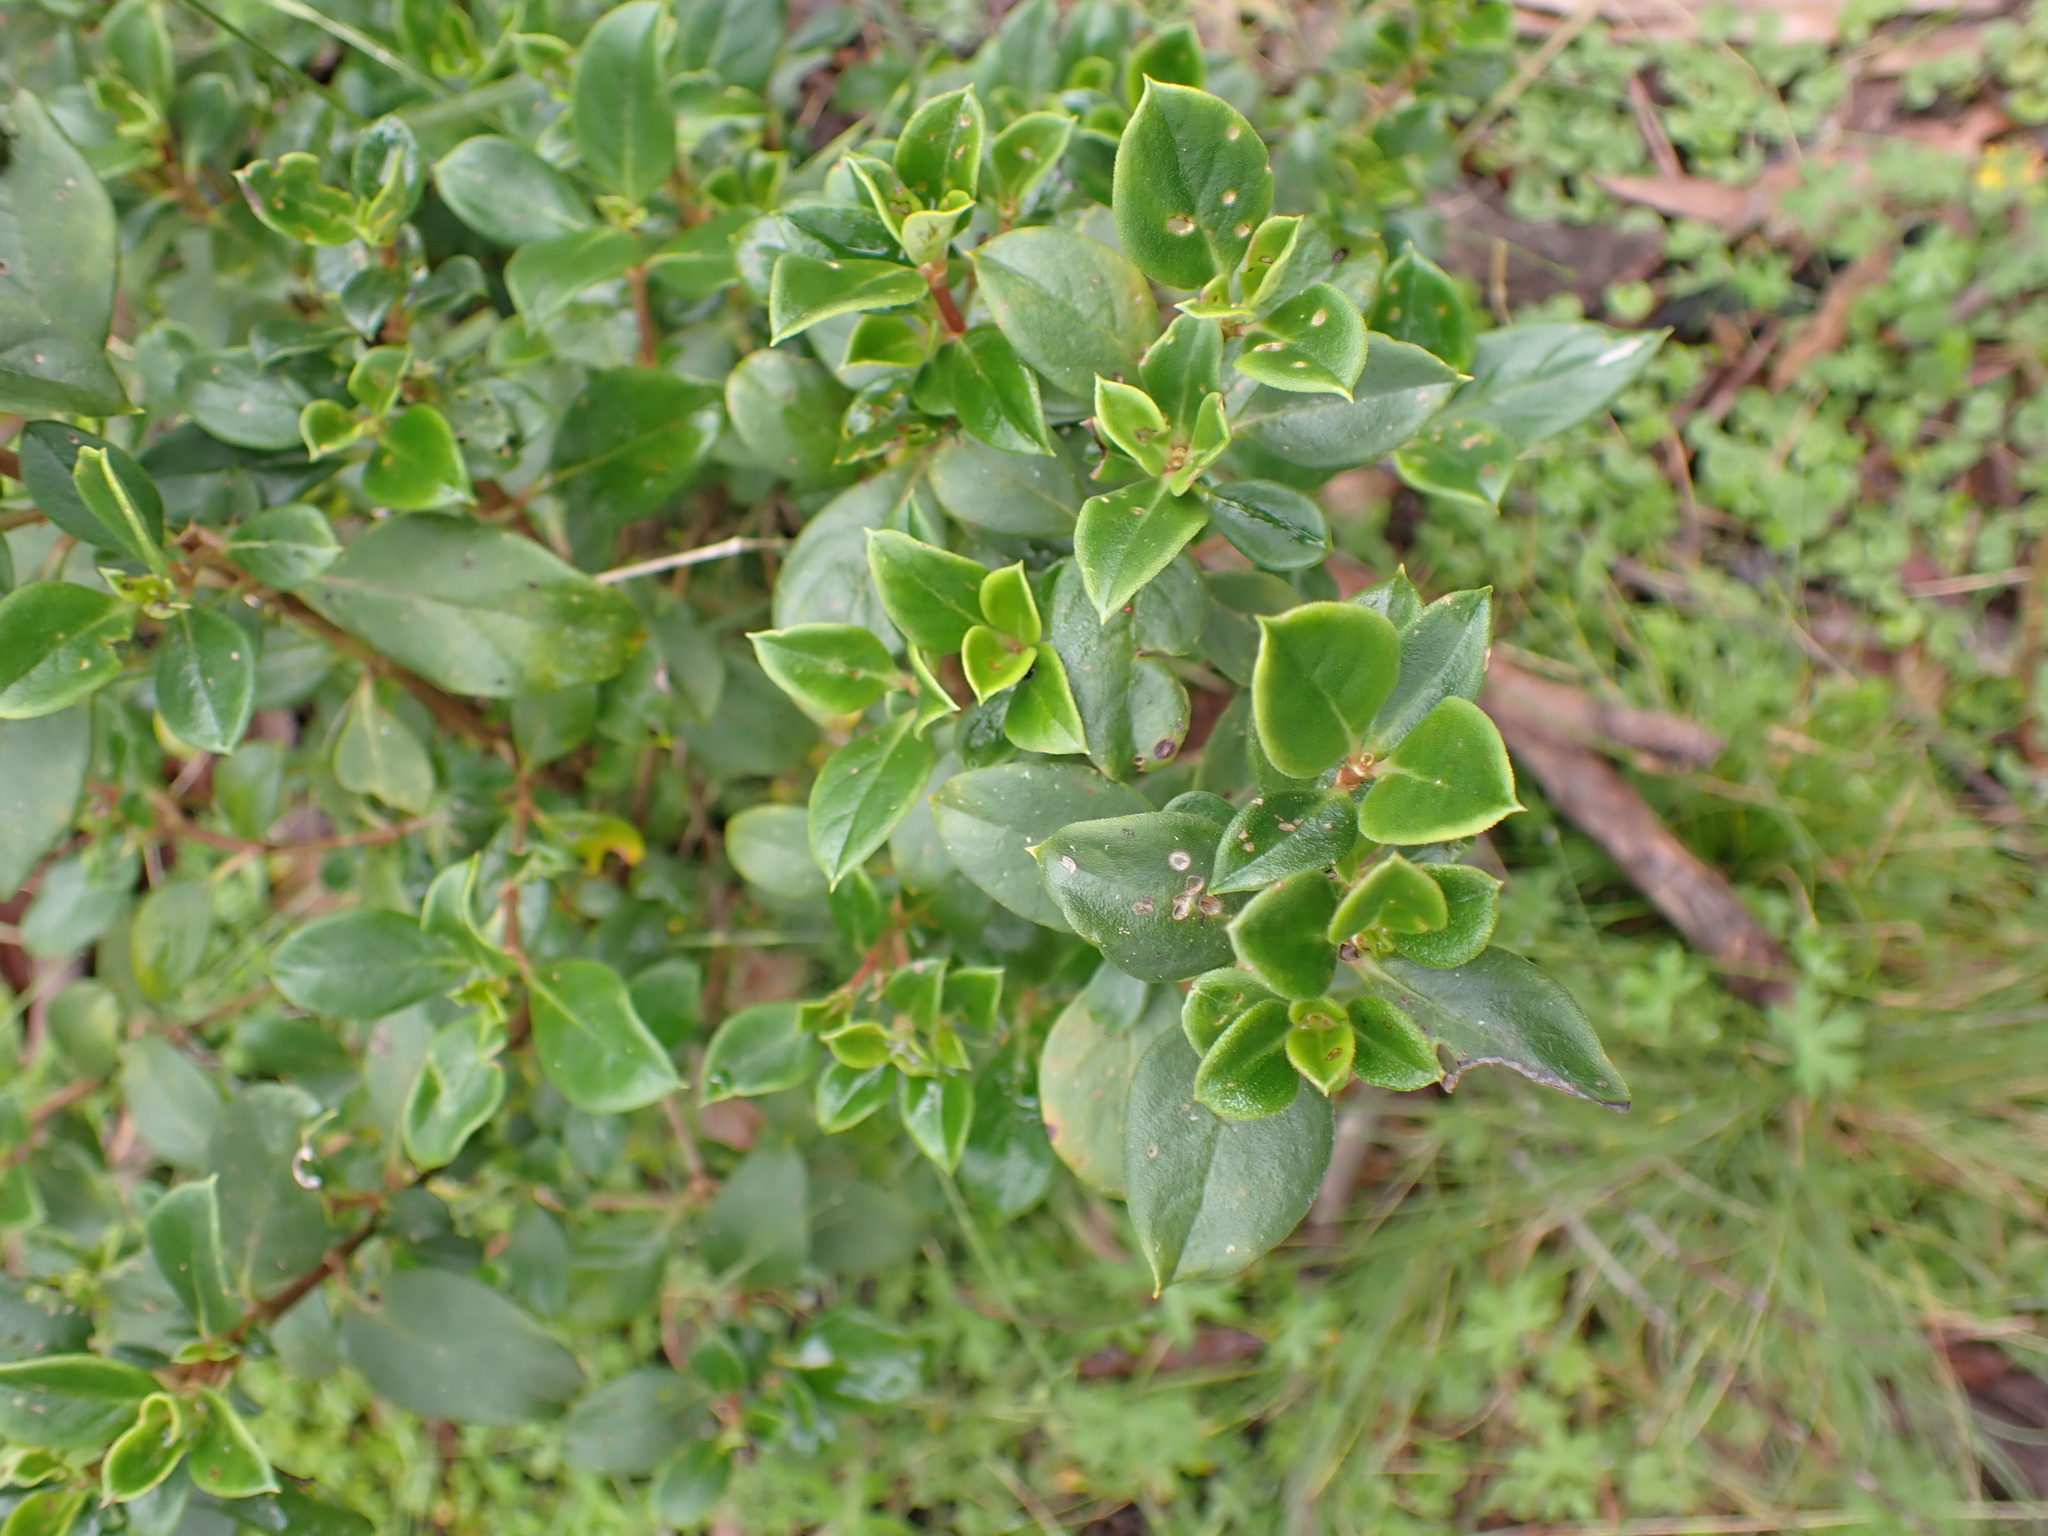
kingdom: Plantae
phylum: Tracheophyta
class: Magnoliopsida
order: Gentianales
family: Rubiaceae
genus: Coprosma
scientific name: Coprosma hirtella
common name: Rough coprosma
